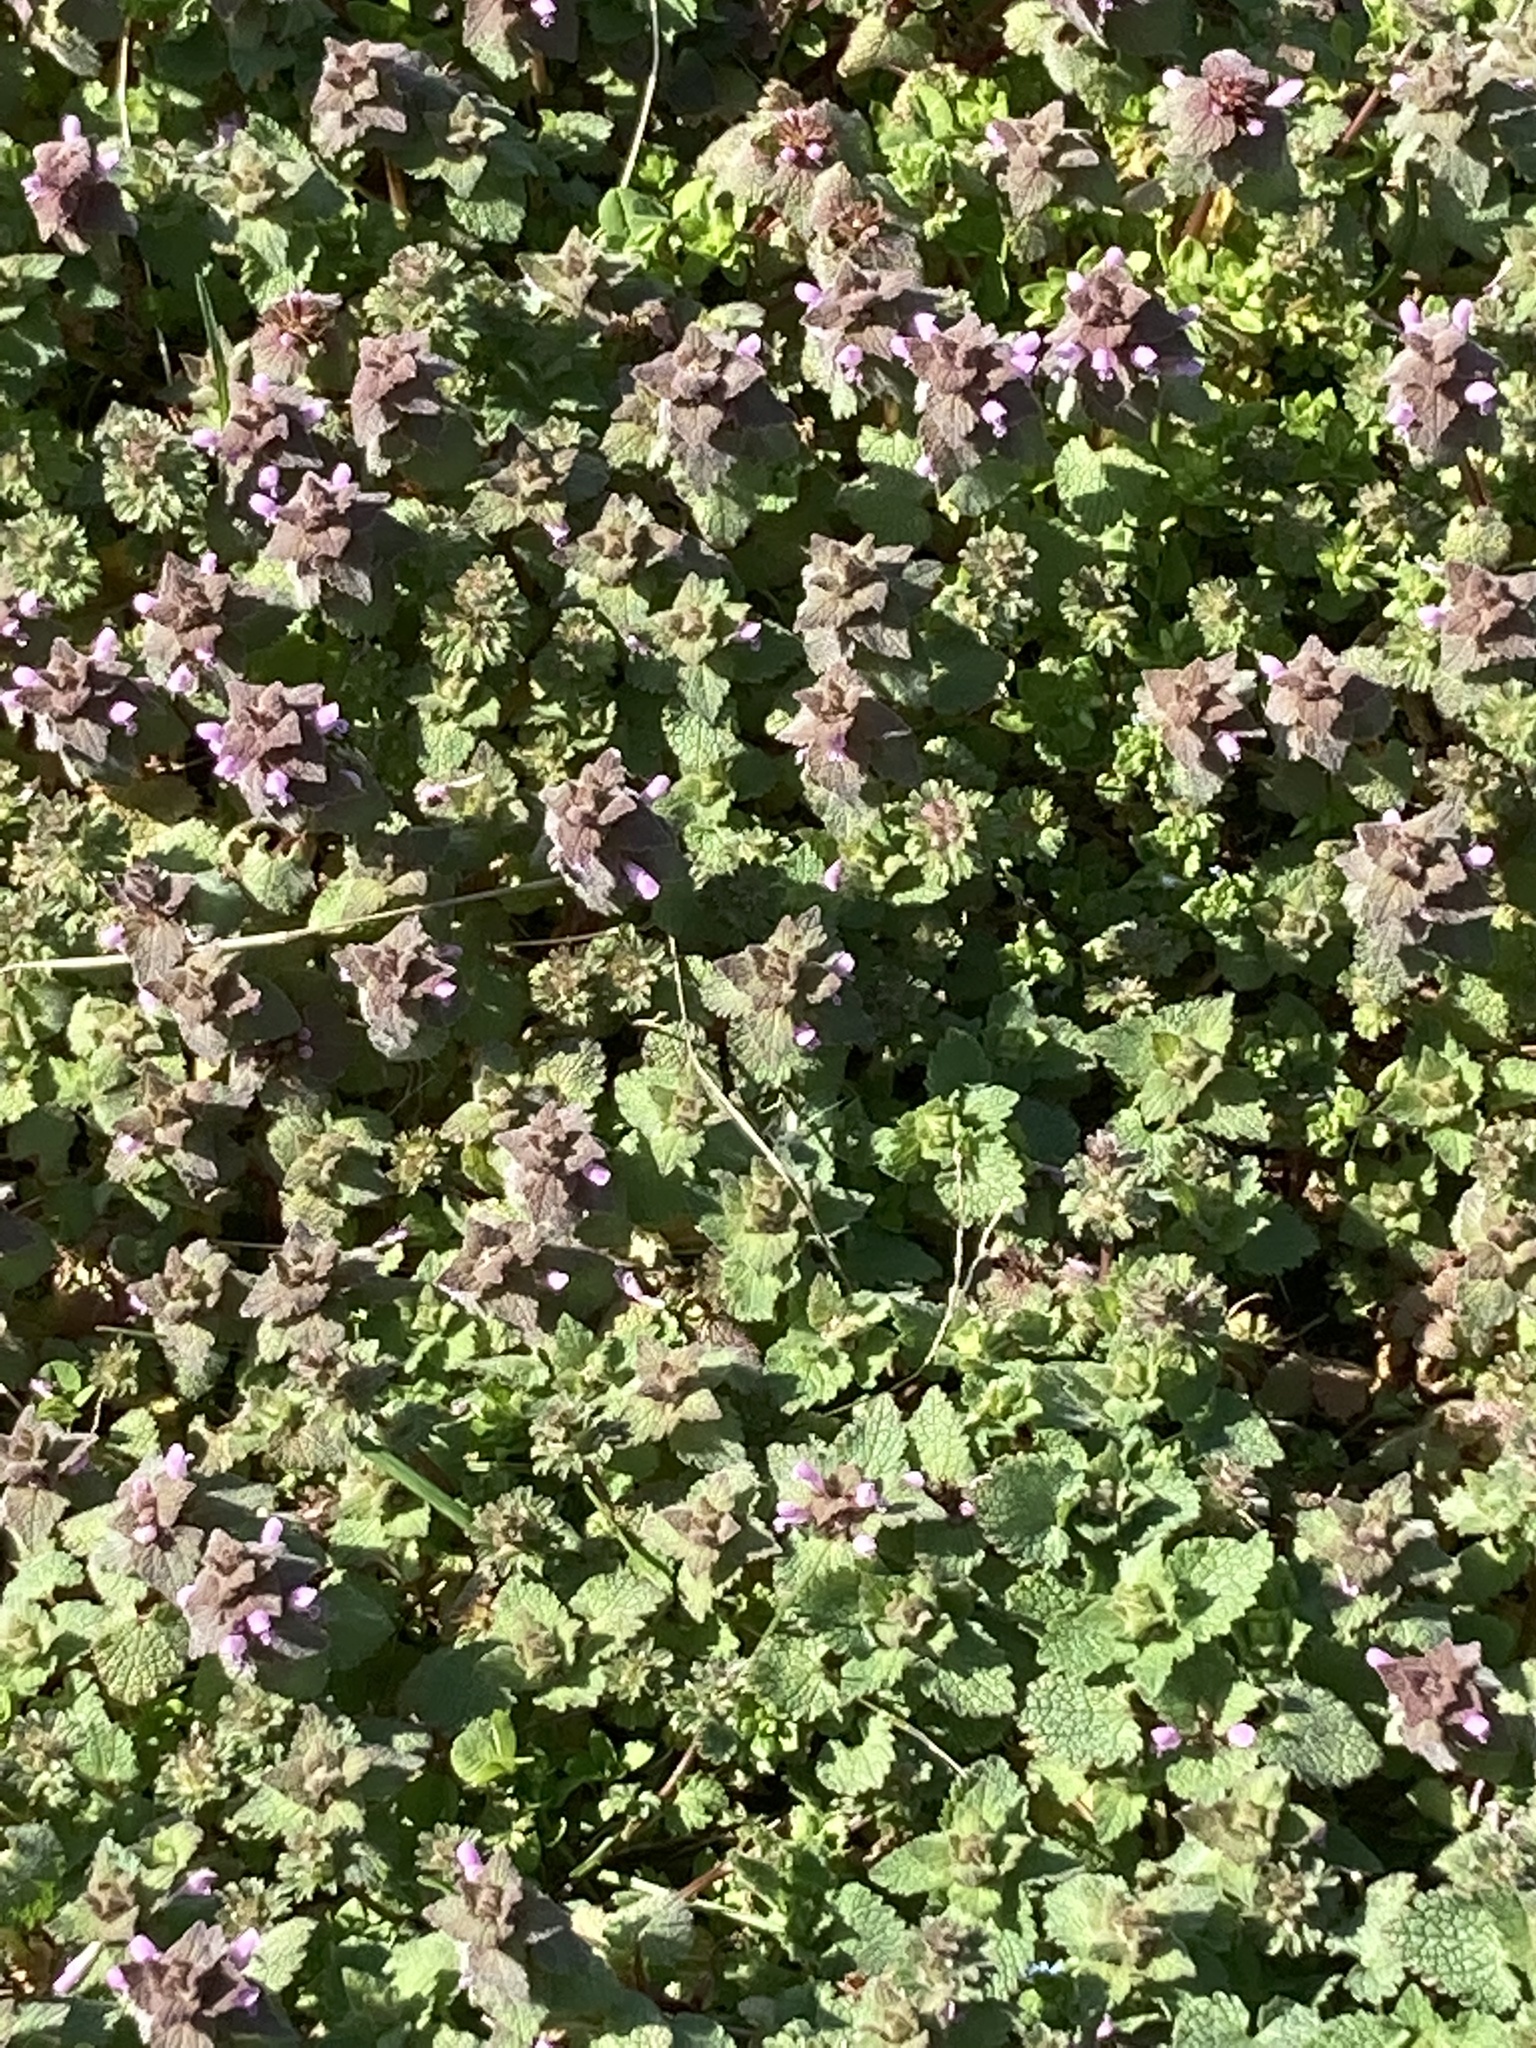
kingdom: Plantae
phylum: Tracheophyta
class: Magnoliopsida
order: Lamiales
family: Lamiaceae
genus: Lamium
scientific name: Lamium purpureum
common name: Red dead-nettle
